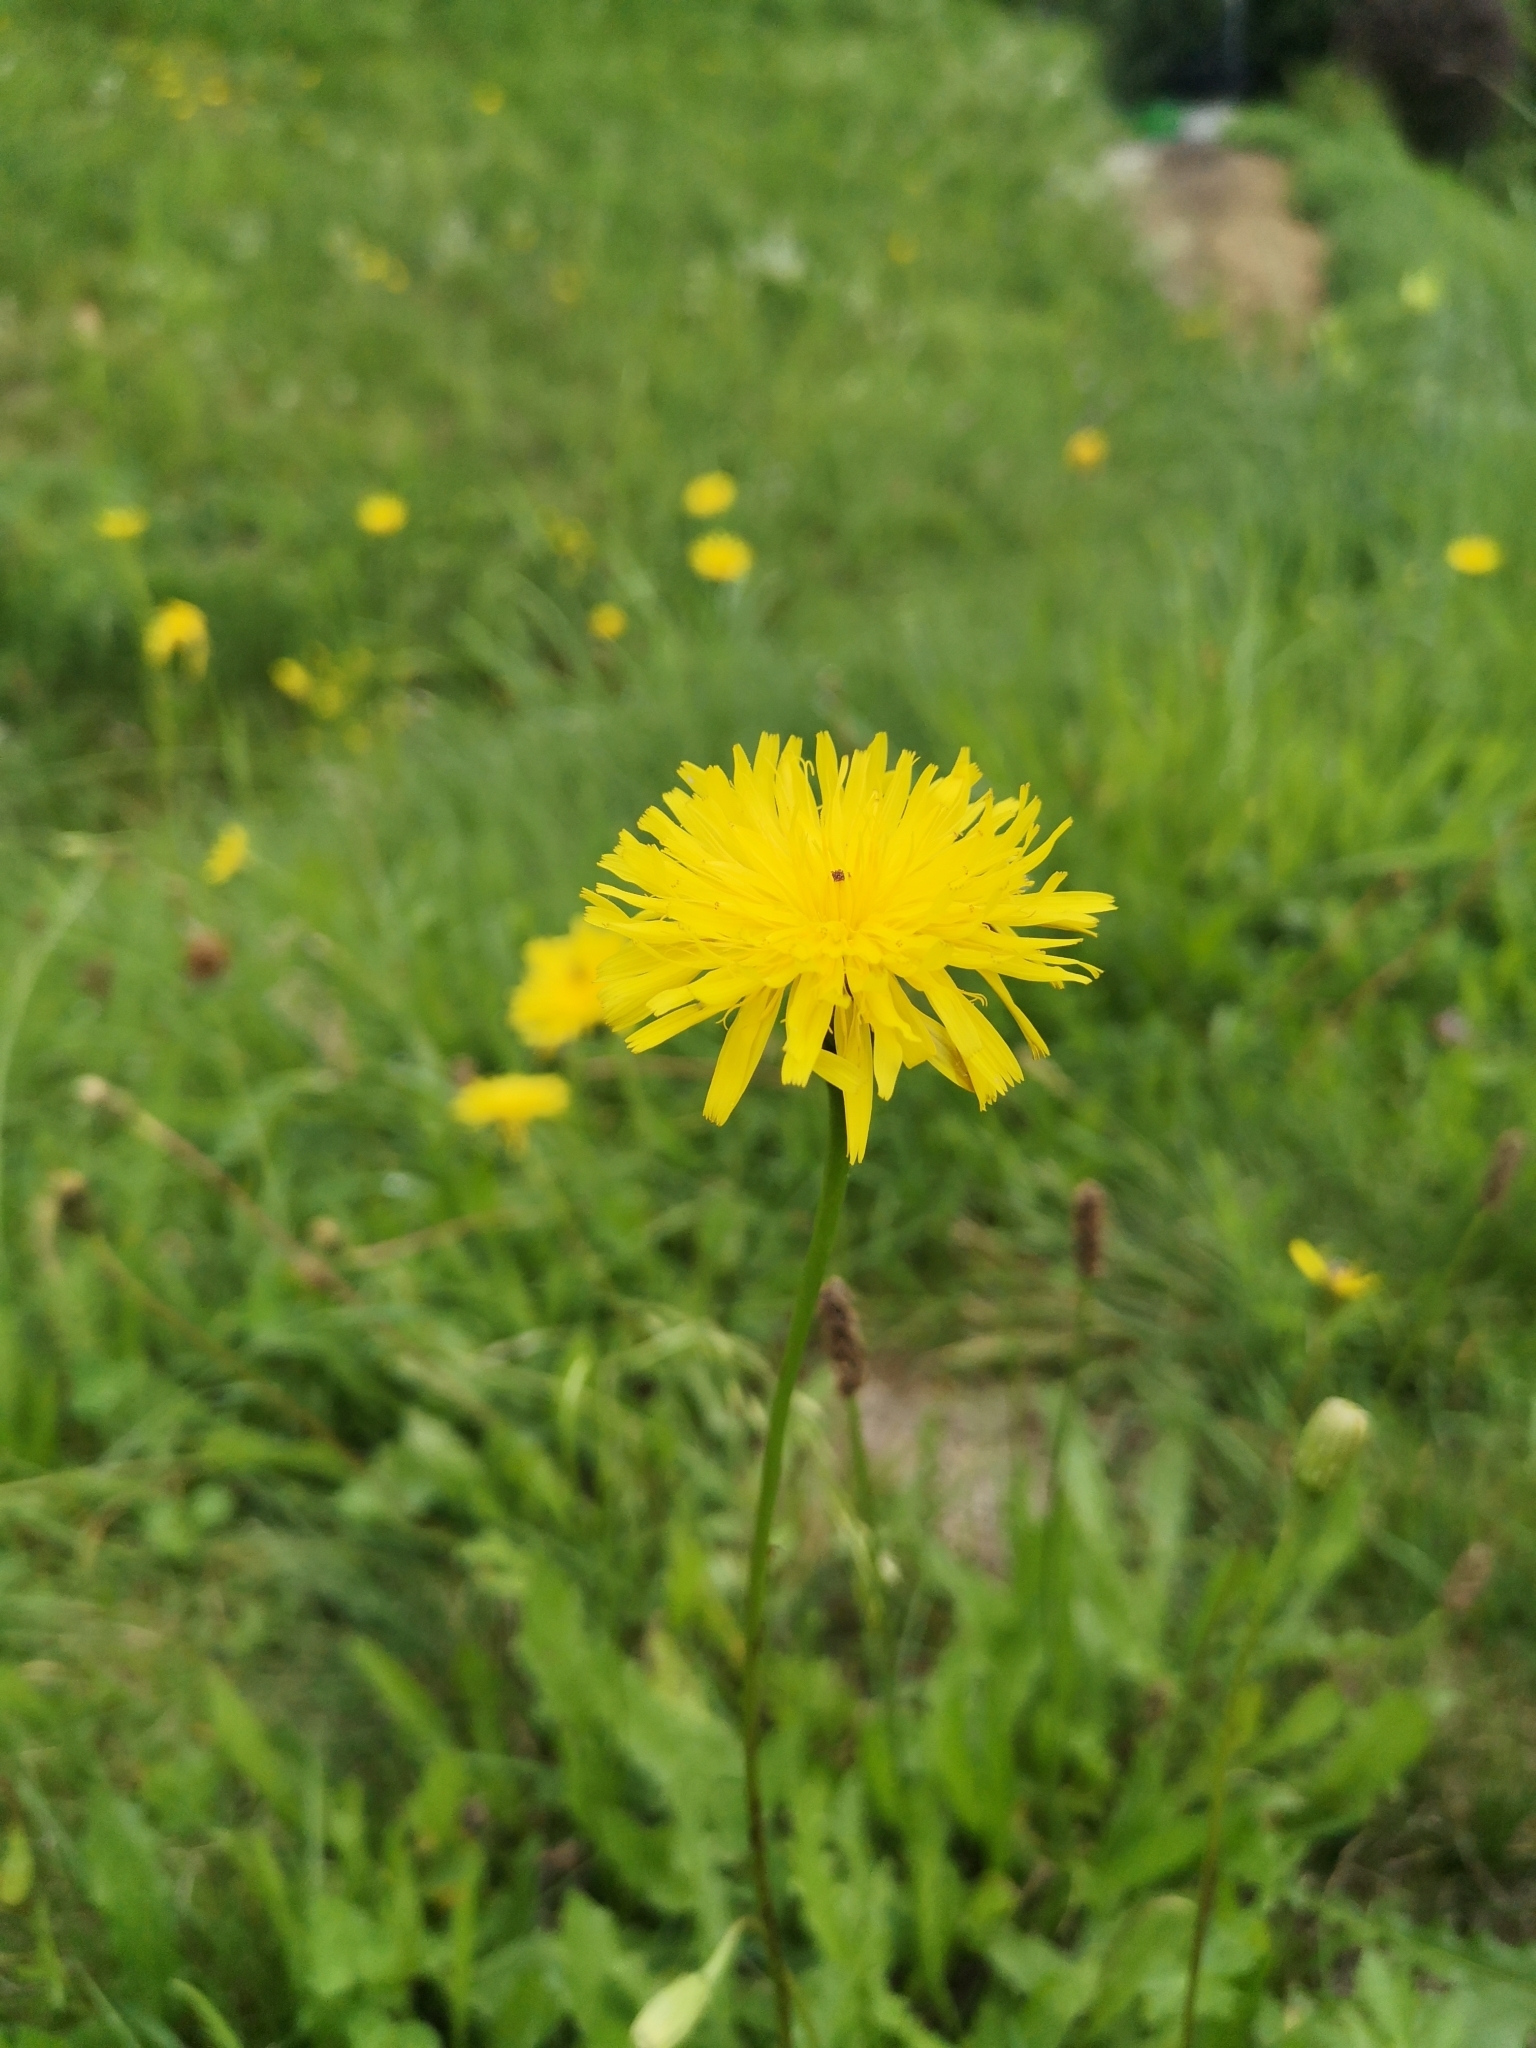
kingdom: Plantae
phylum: Tracheophyta
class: Magnoliopsida
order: Asterales
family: Asteraceae
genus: Leontodon
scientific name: Leontodon hispidus
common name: Rough hawkbit
